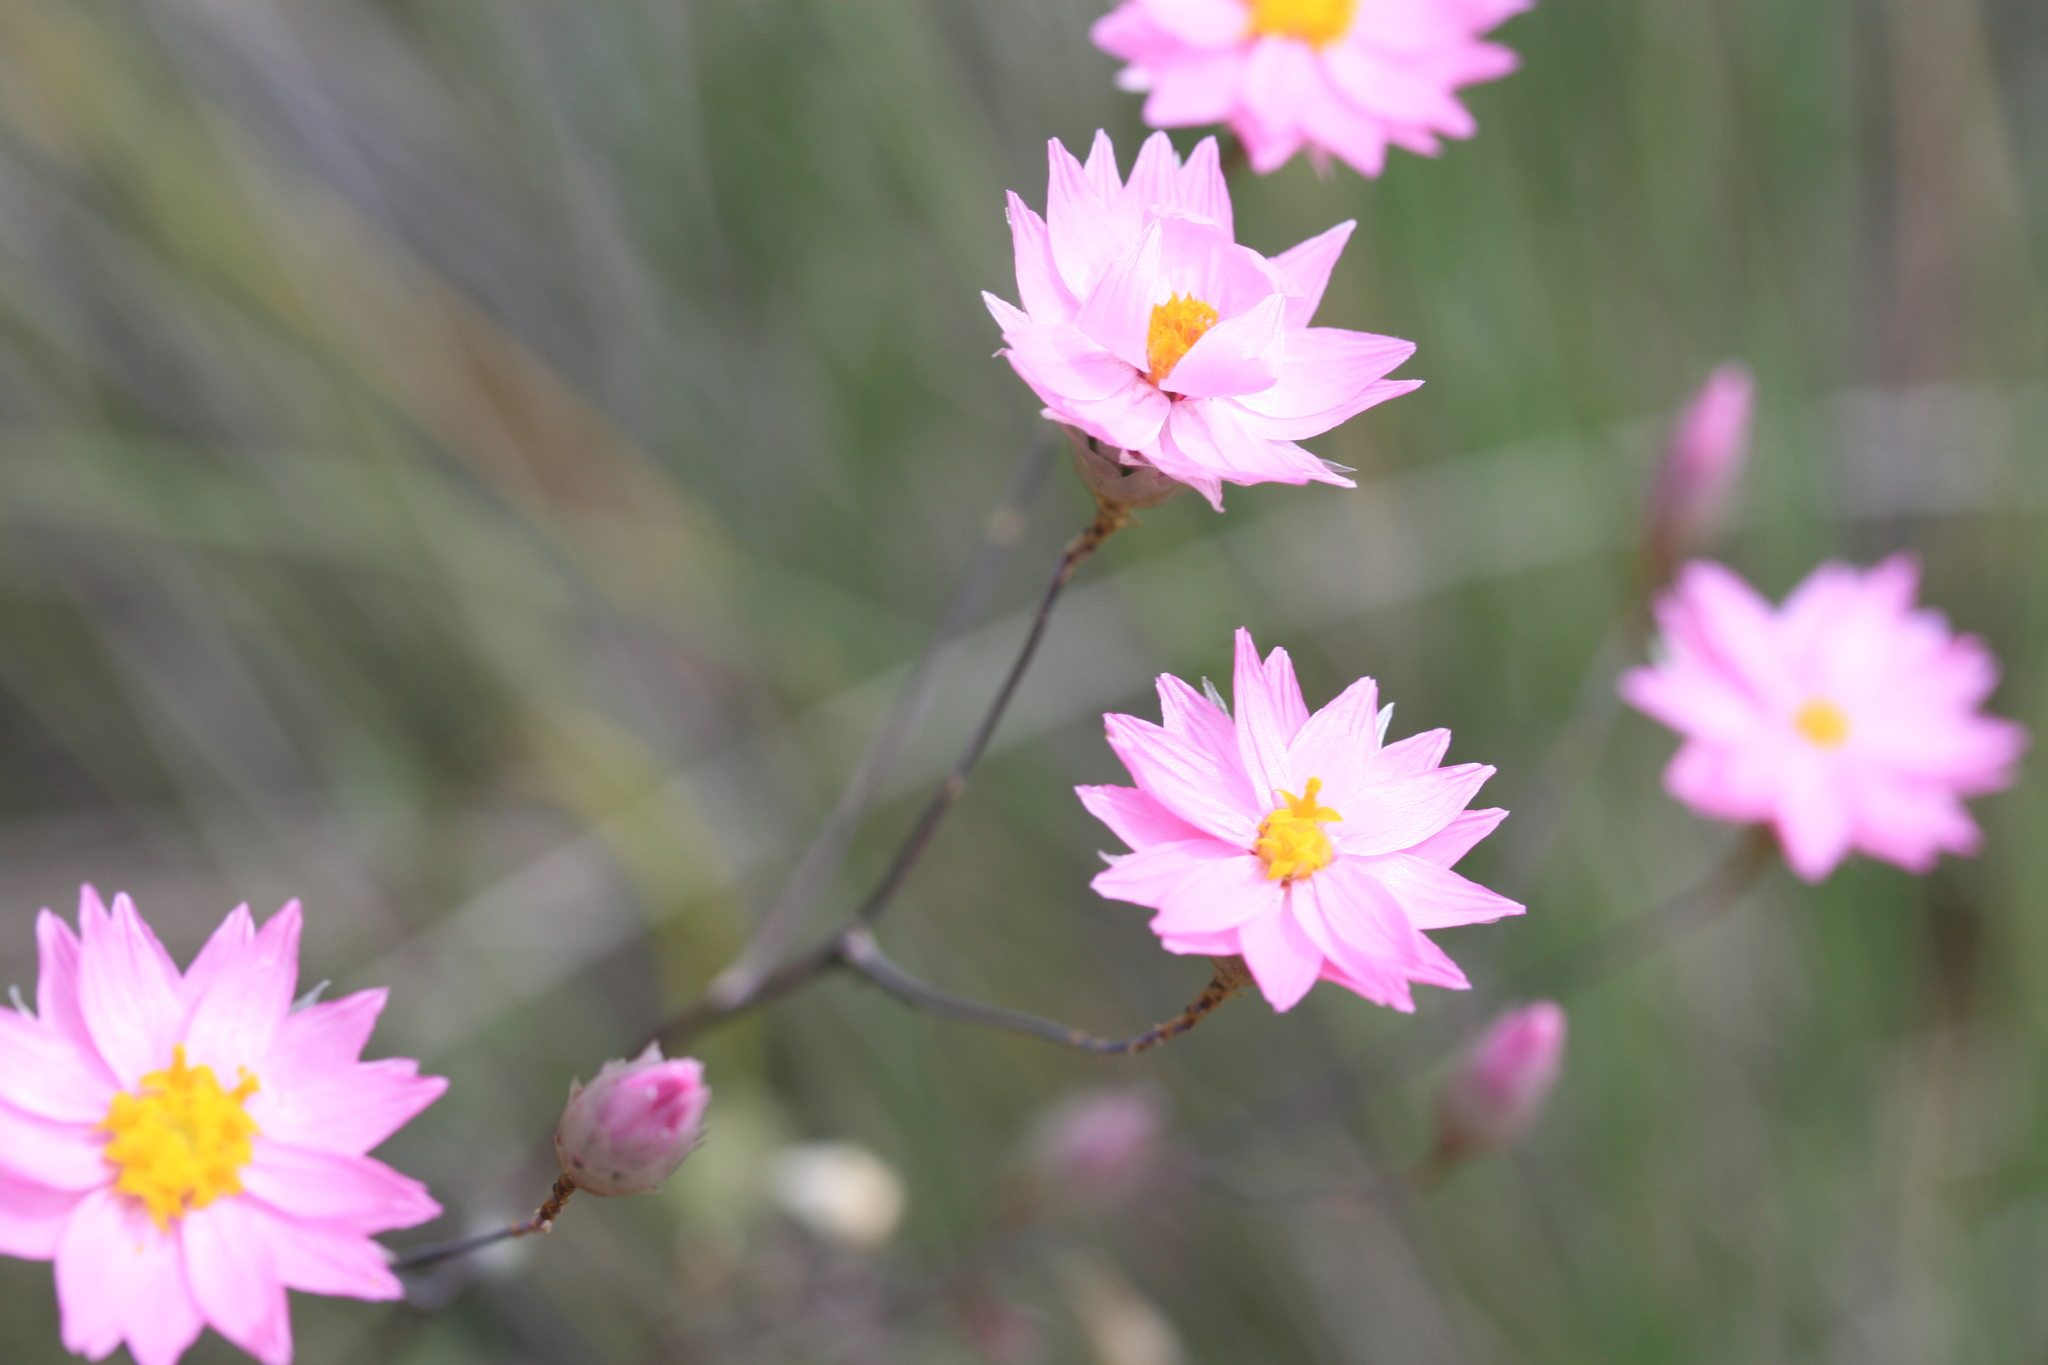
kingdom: Plantae
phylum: Tracheophyta
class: Magnoliopsida
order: Asterales
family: Asteraceae
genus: Rhodanthe
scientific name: Rhodanthe manglesii
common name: Pink sunray
